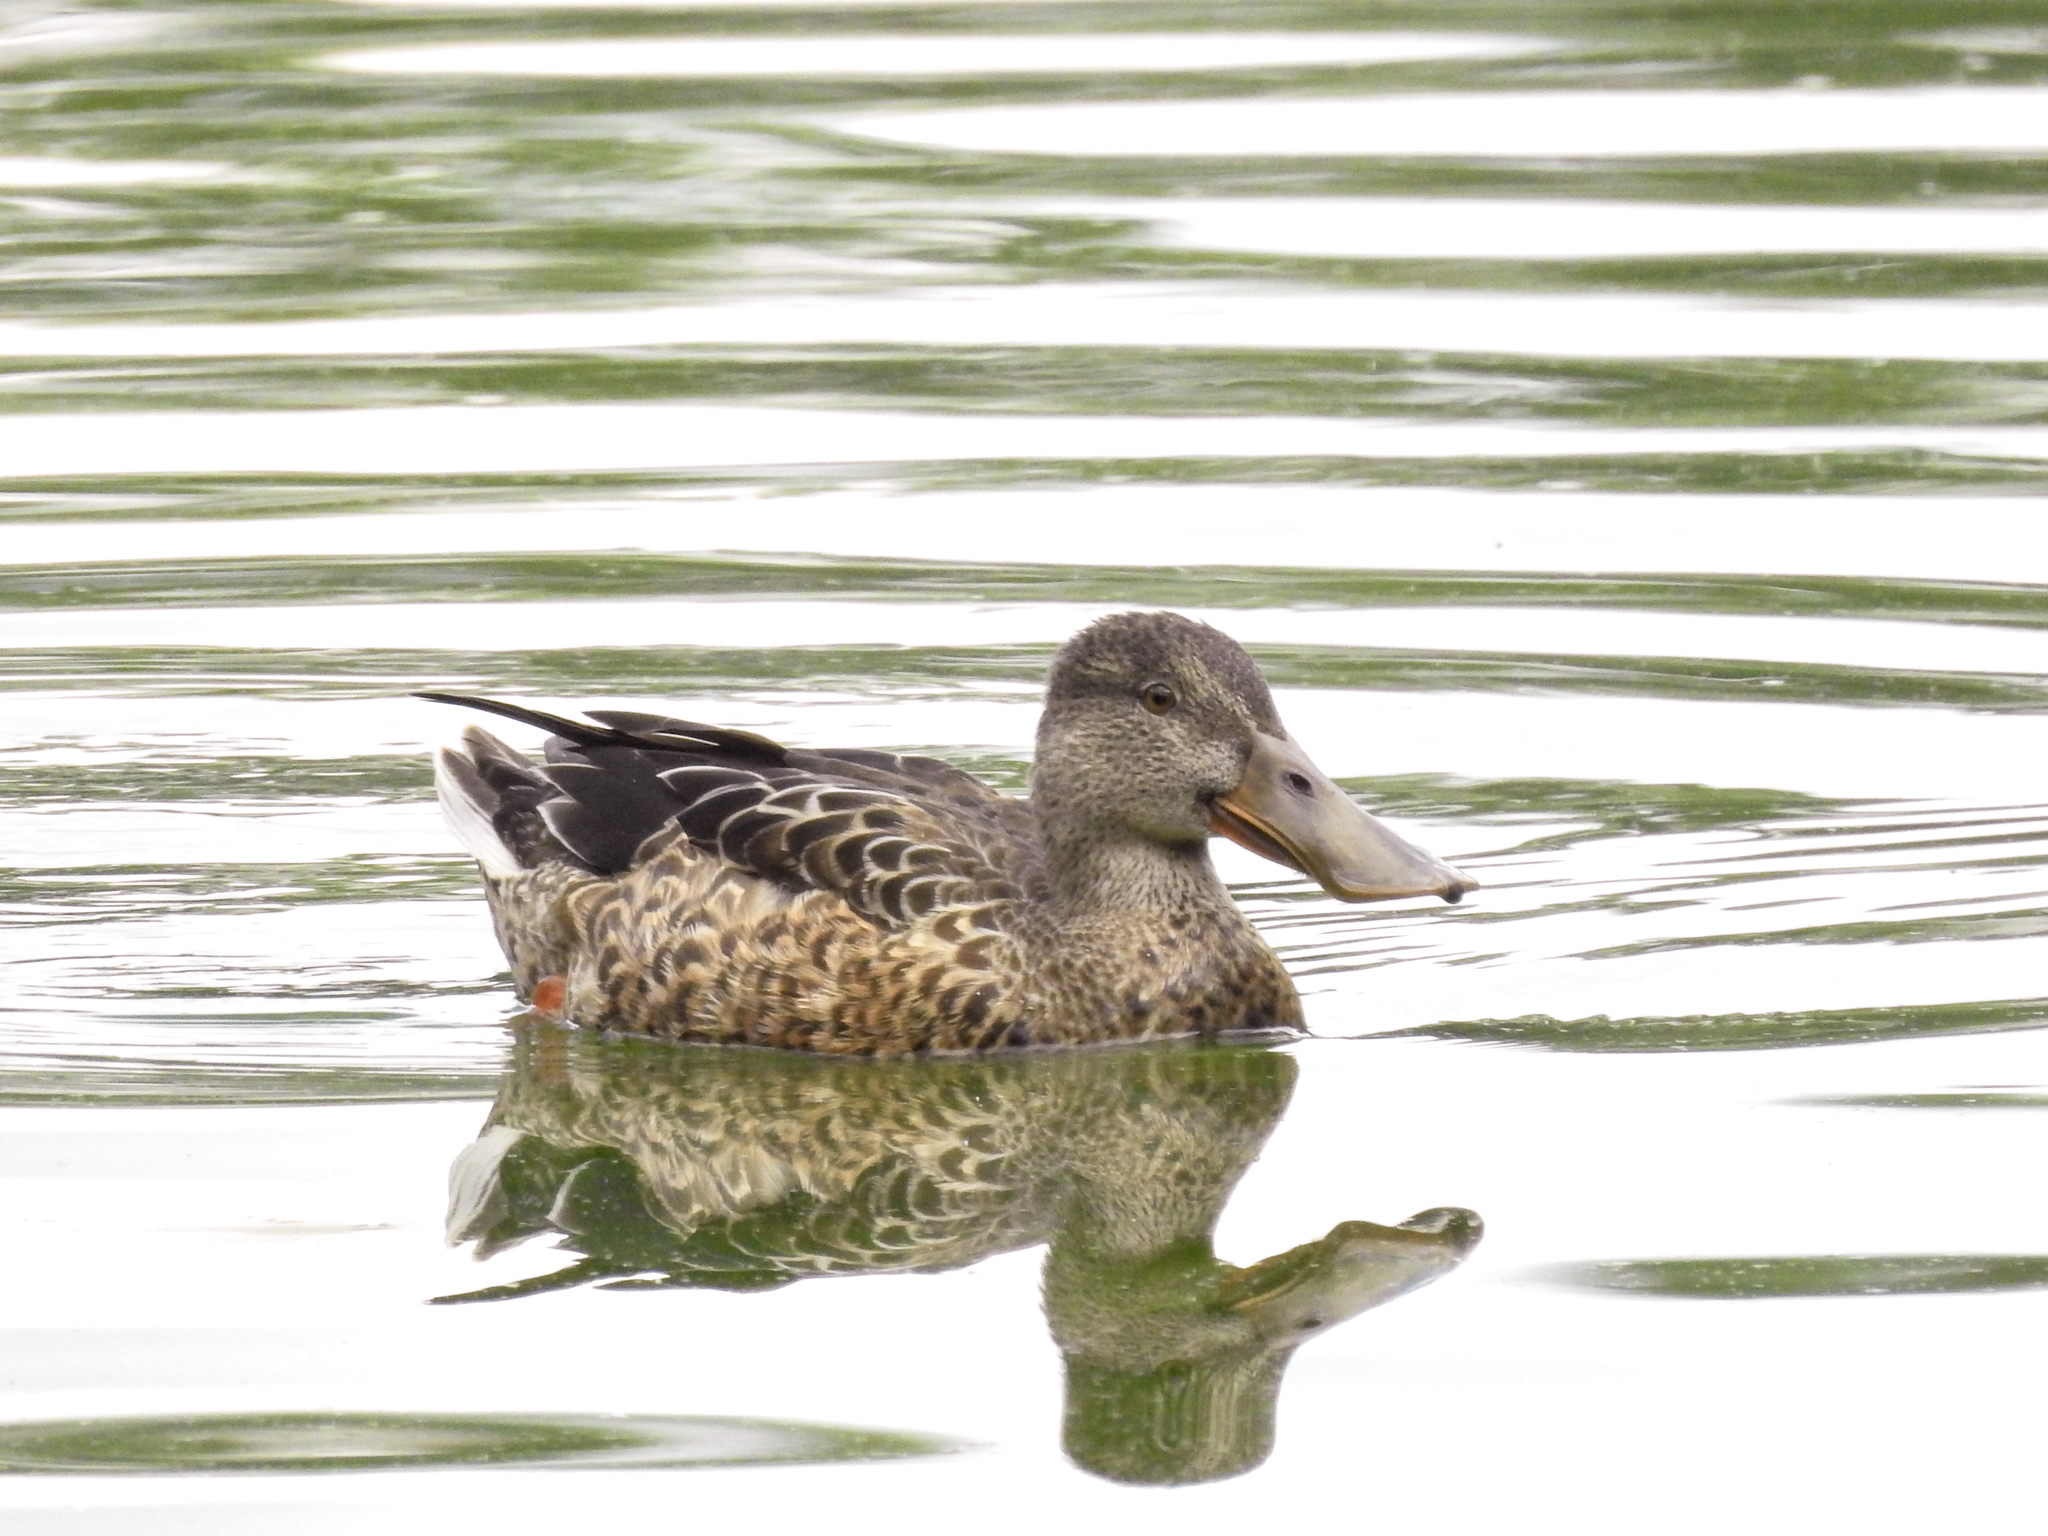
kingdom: Animalia
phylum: Chordata
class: Aves
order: Anseriformes
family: Anatidae
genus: Spatula
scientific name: Spatula clypeata
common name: Northern shoveler
